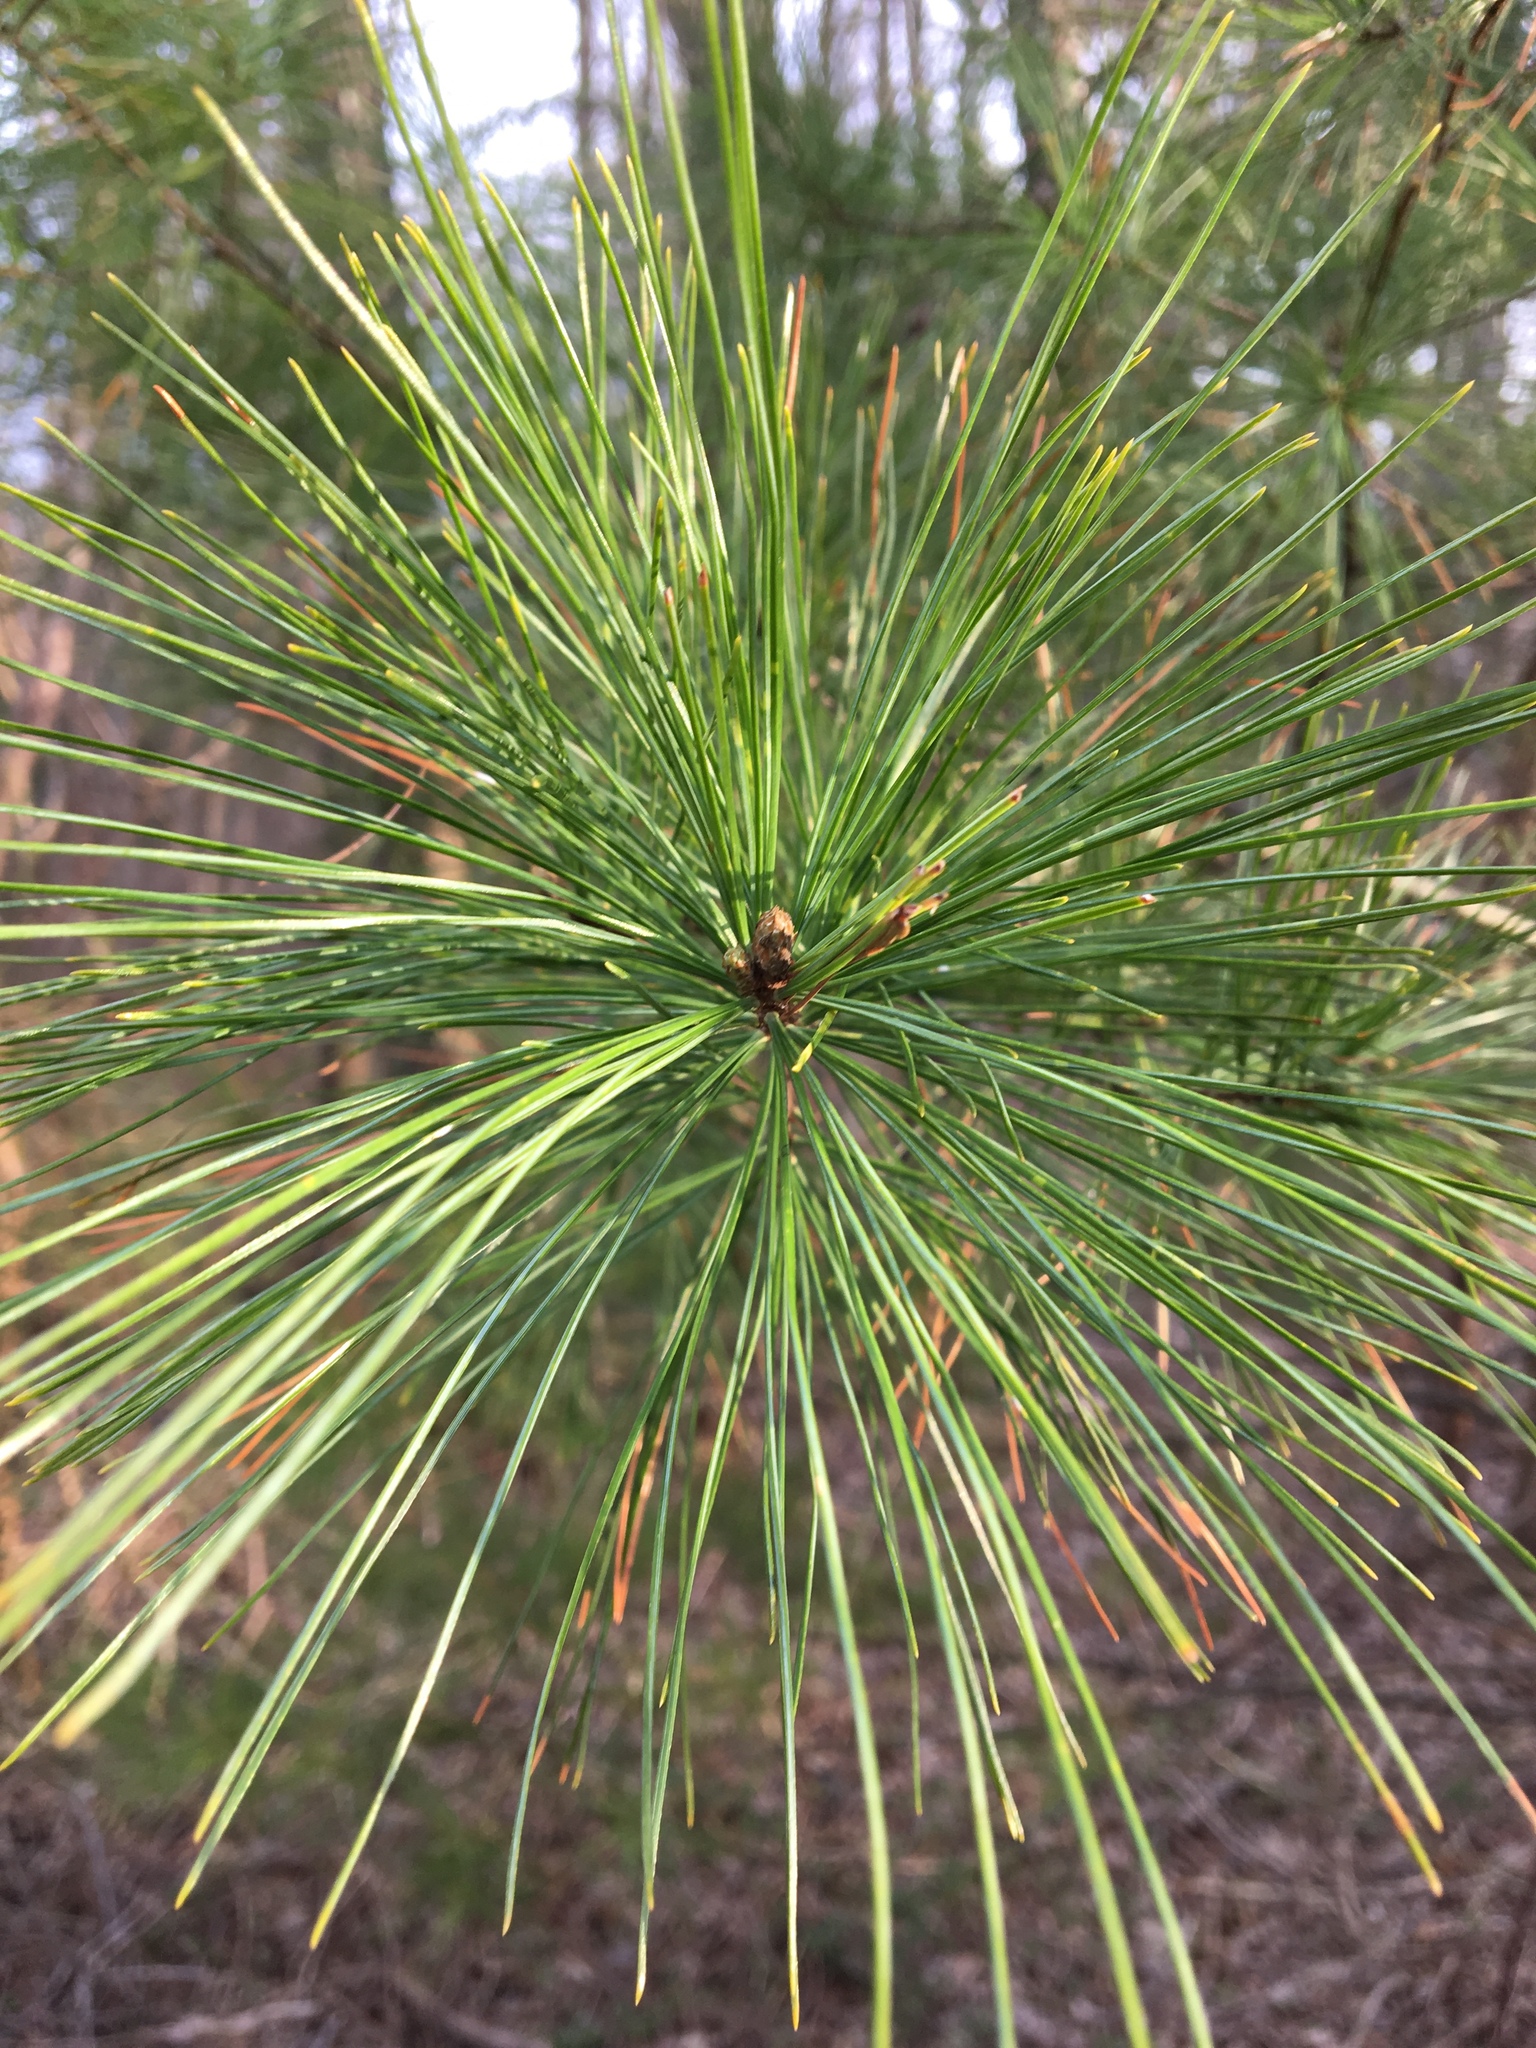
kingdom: Plantae
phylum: Tracheophyta
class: Pinopsida
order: Pinales
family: Pinaceae
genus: Pinus
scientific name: Pinus strobus
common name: Weymouth pine
